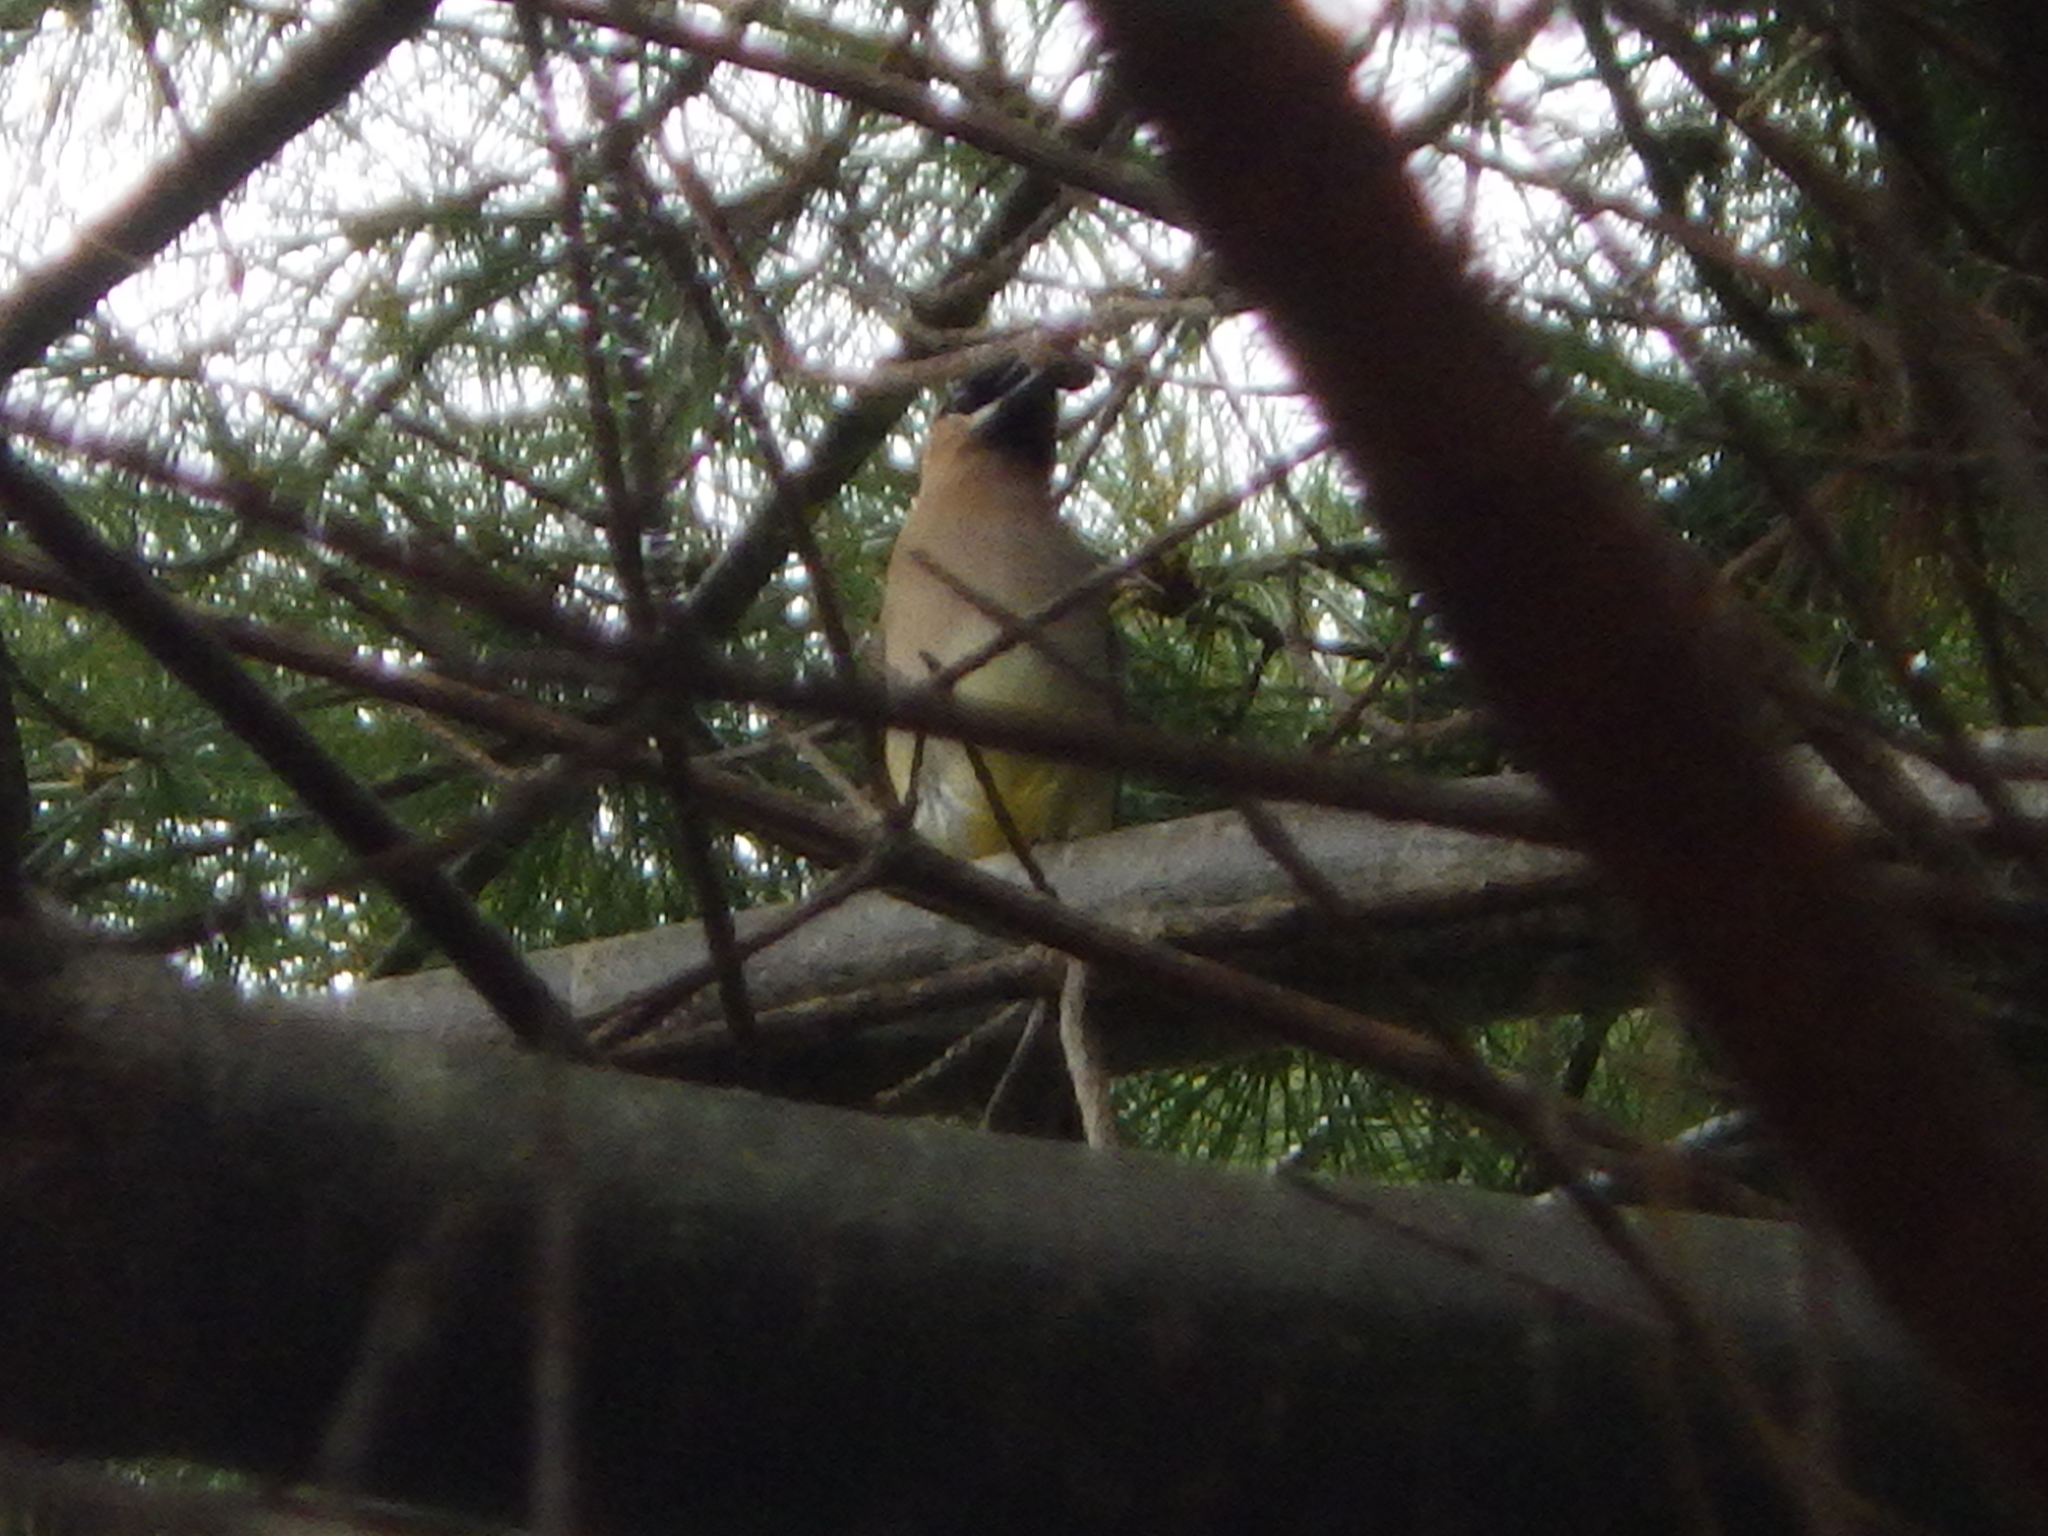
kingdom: Animalia
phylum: Chordata
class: Aves
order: Passeriformes
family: Bombycillidae
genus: Bombycilla
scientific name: Bombycilla cedrorum
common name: Cedar waxwing
